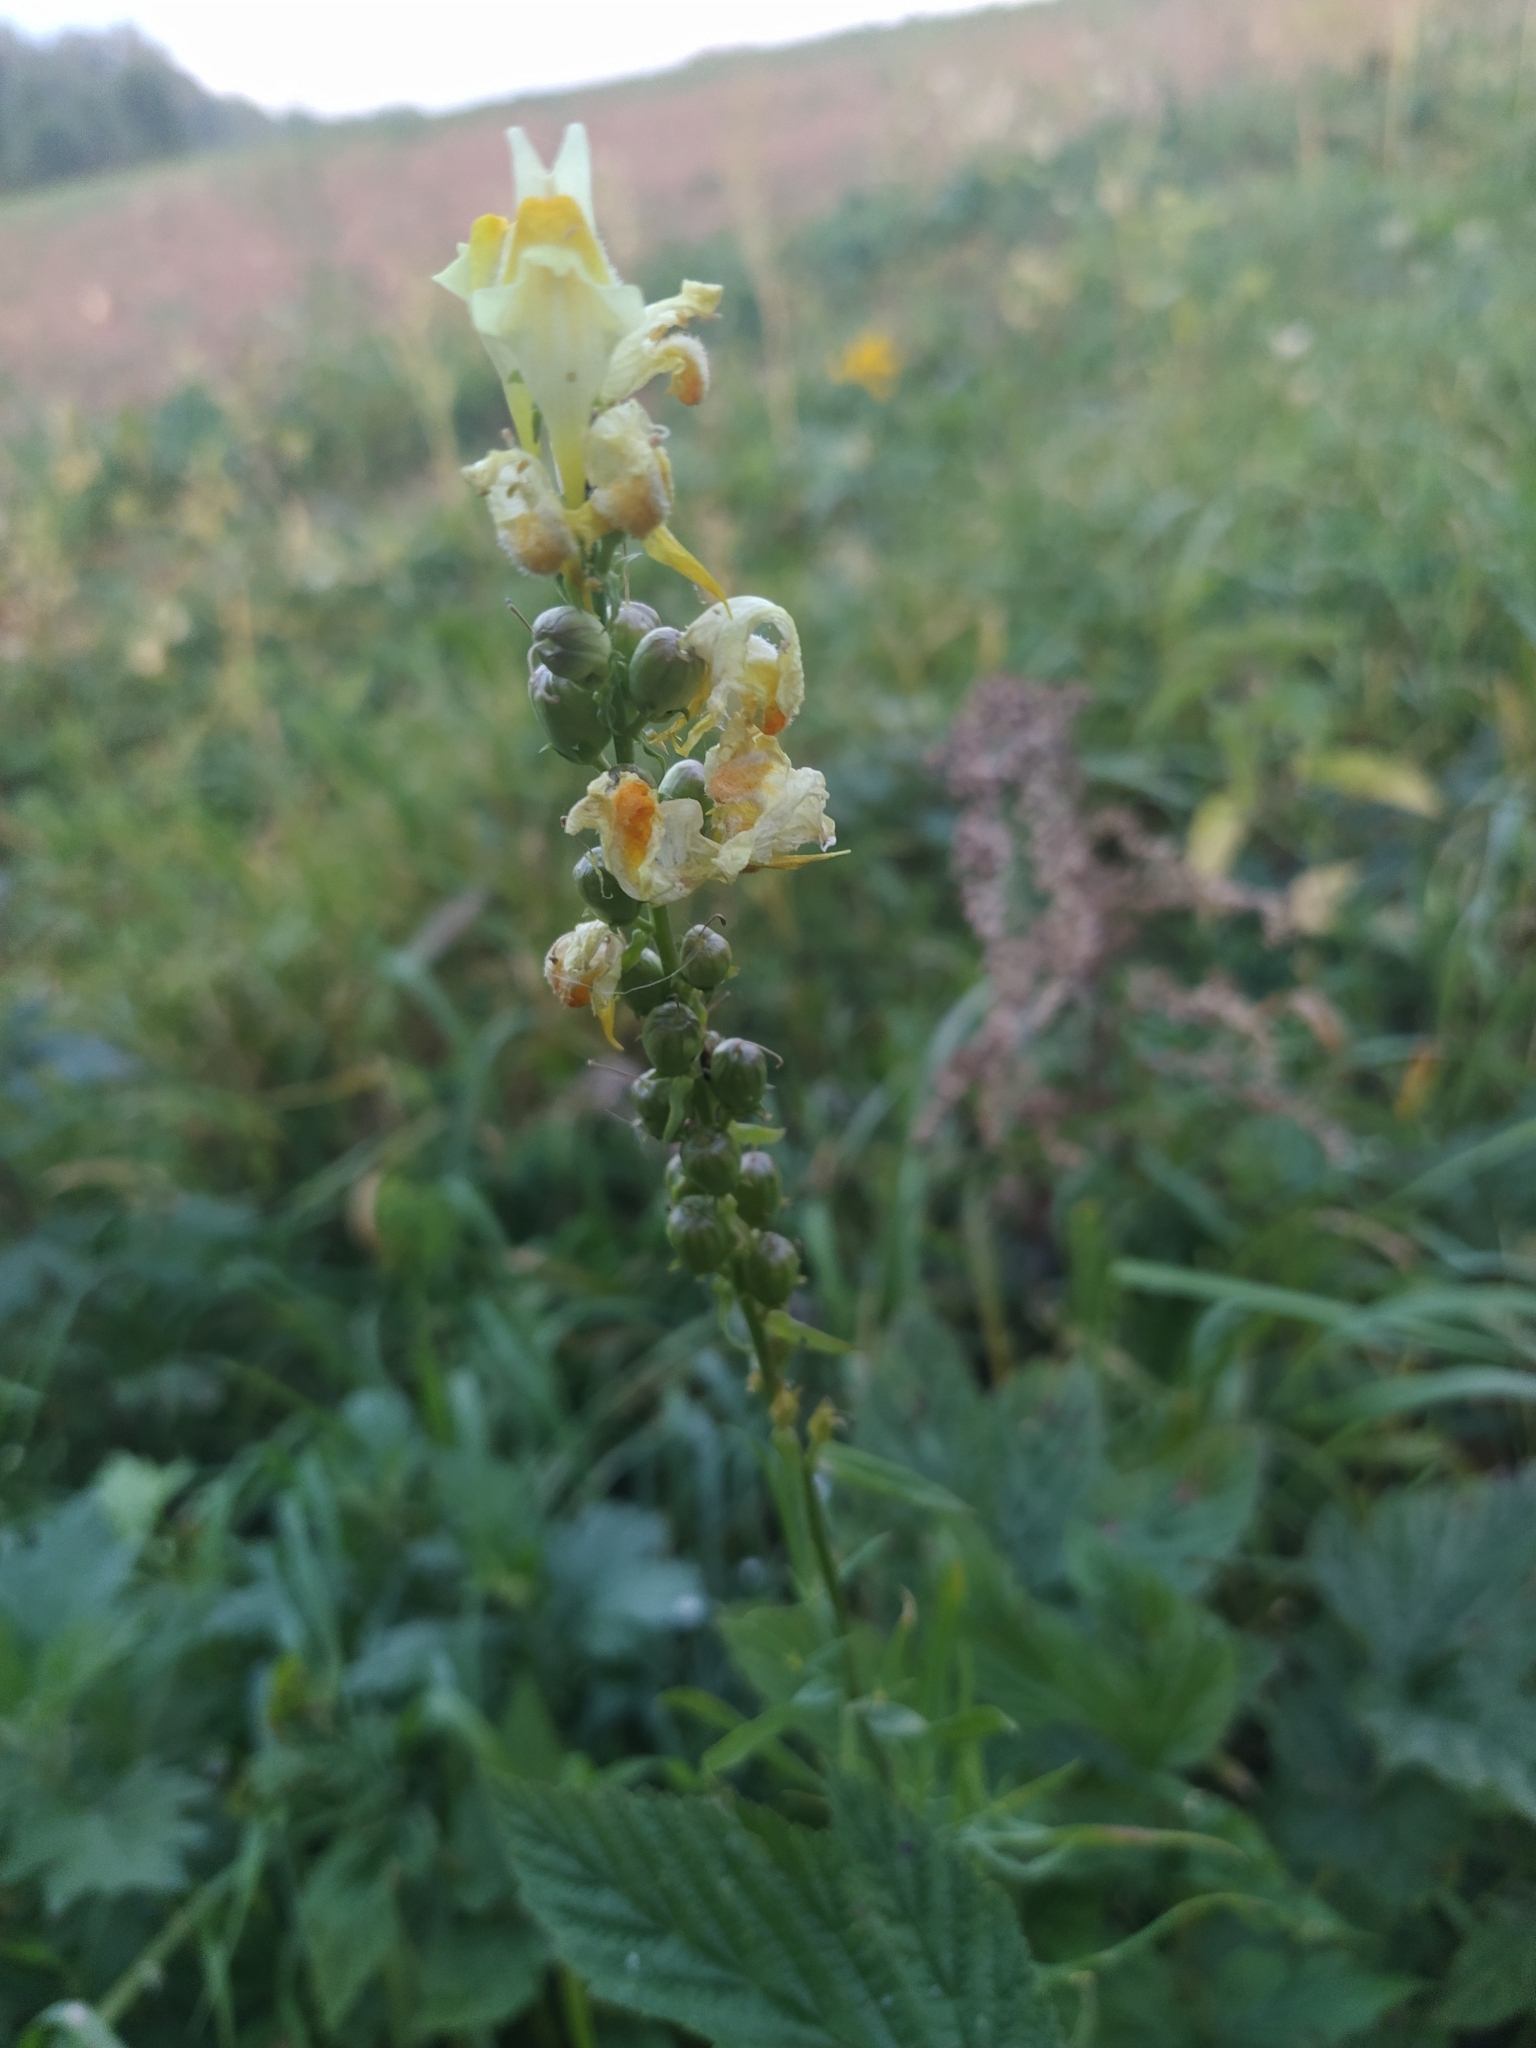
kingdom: Plantae
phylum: Tracheophyta
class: Magnoliopsida
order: Lamiales
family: Plantaginaceae
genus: Linaria
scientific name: Linaria vulgaris
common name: Butter and eggs
